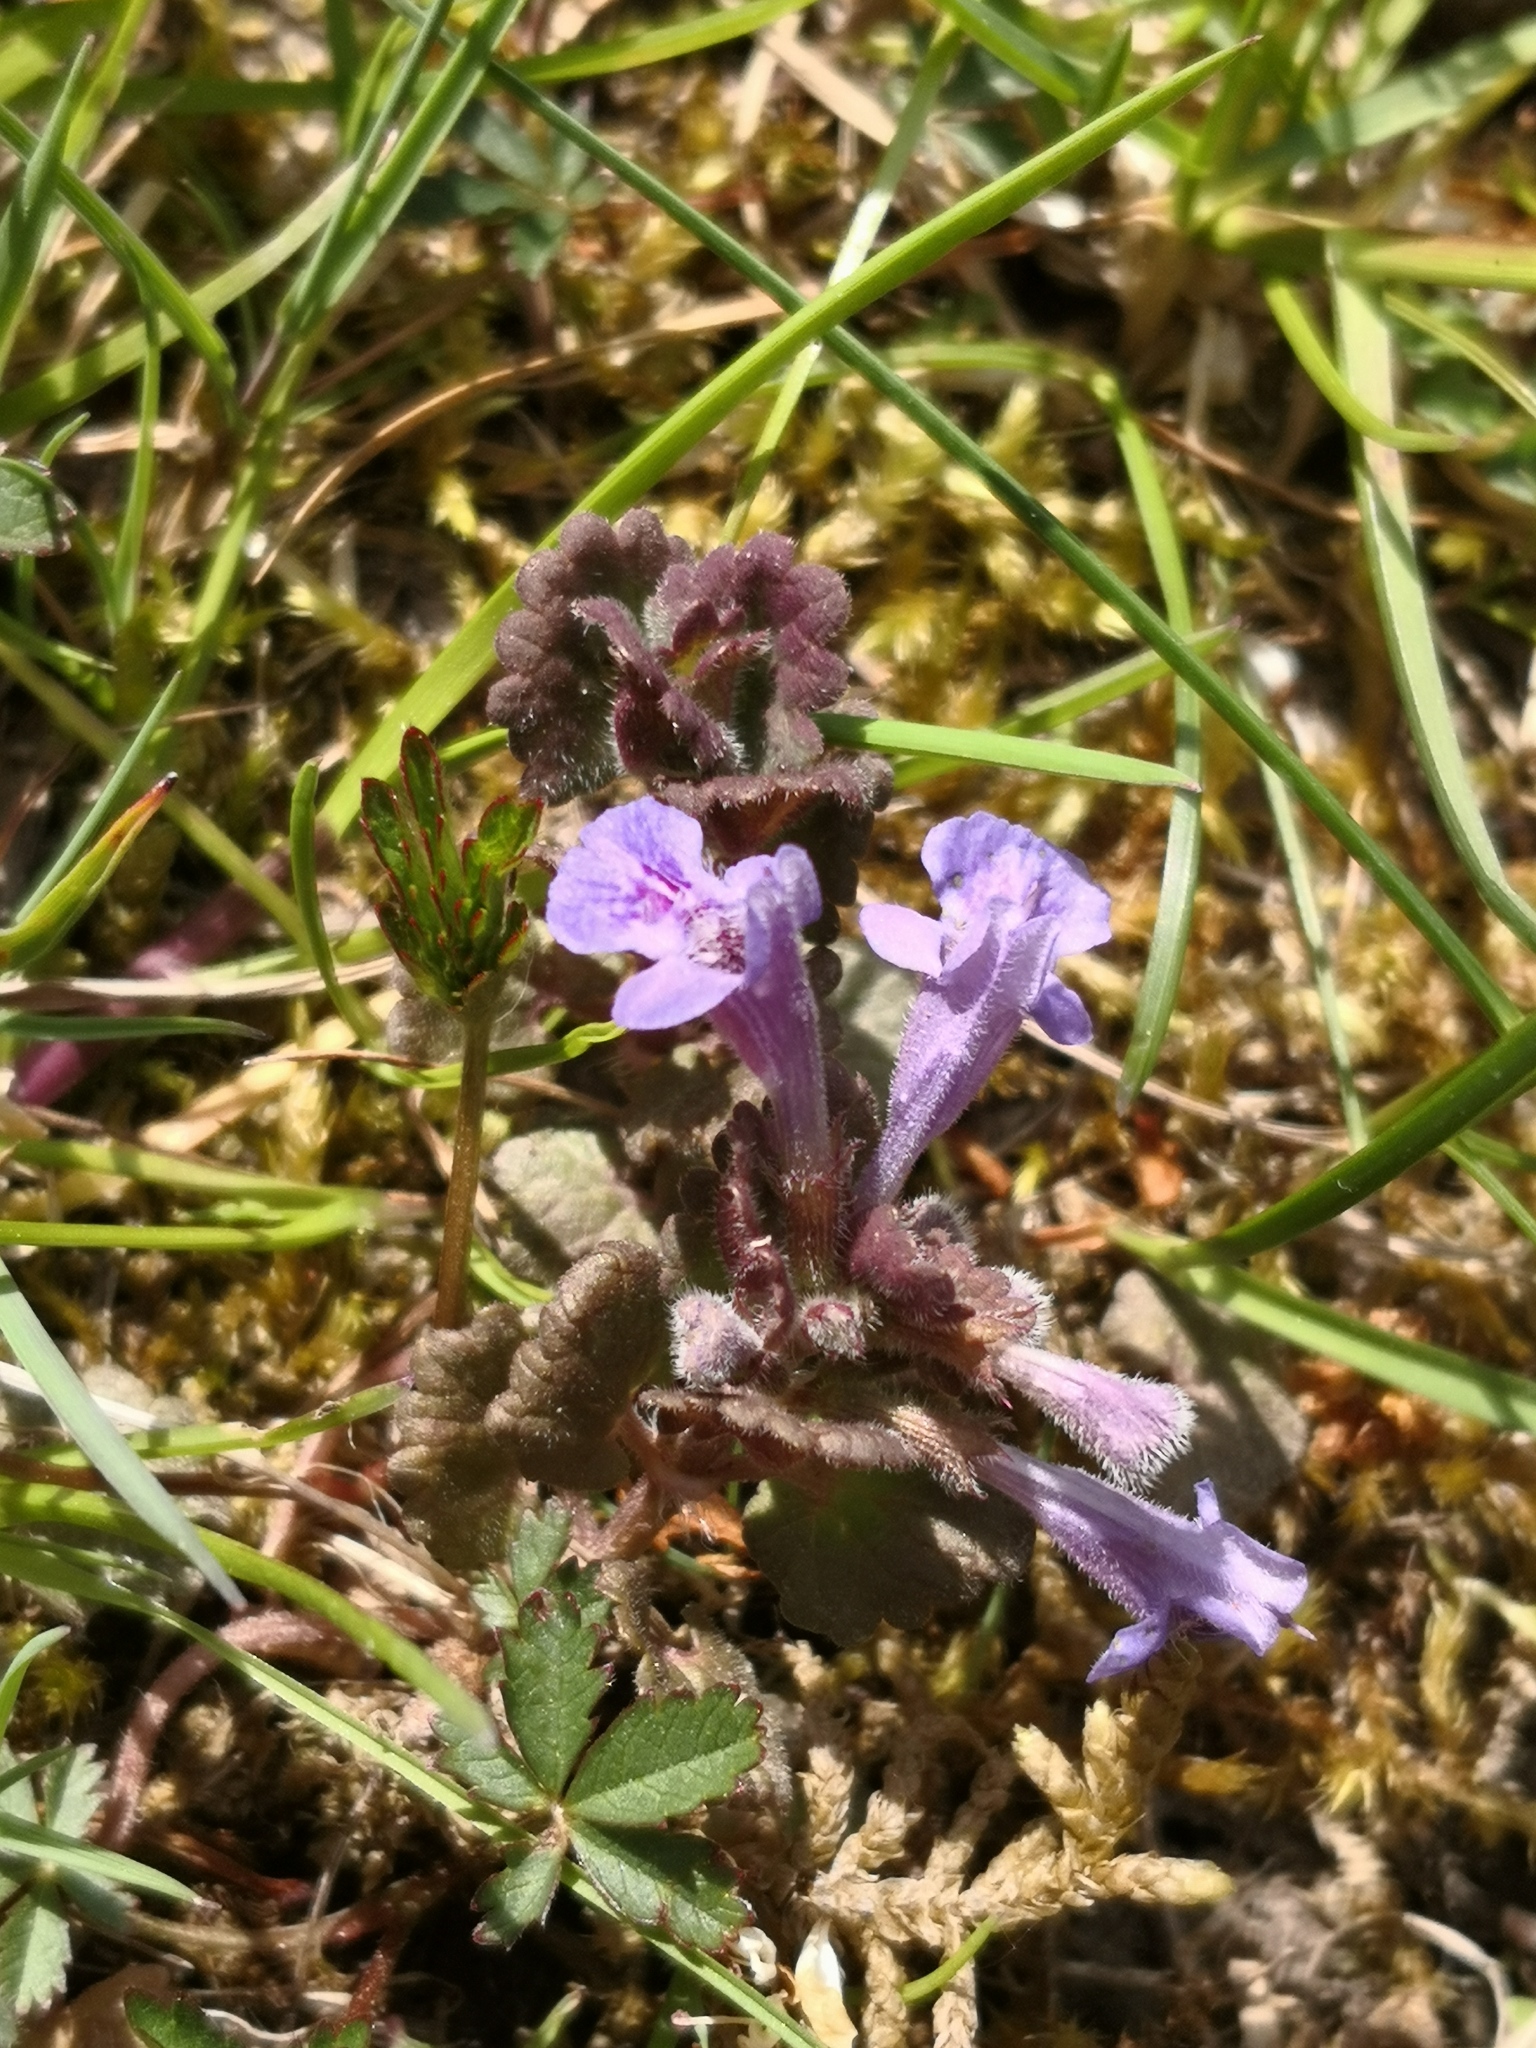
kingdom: Plantae
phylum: Tracheophyta
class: Magnoliopsida
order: Lamiales
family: Lamiaceae
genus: Glechoma
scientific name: Glechoma hederacea
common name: Ground ivy
